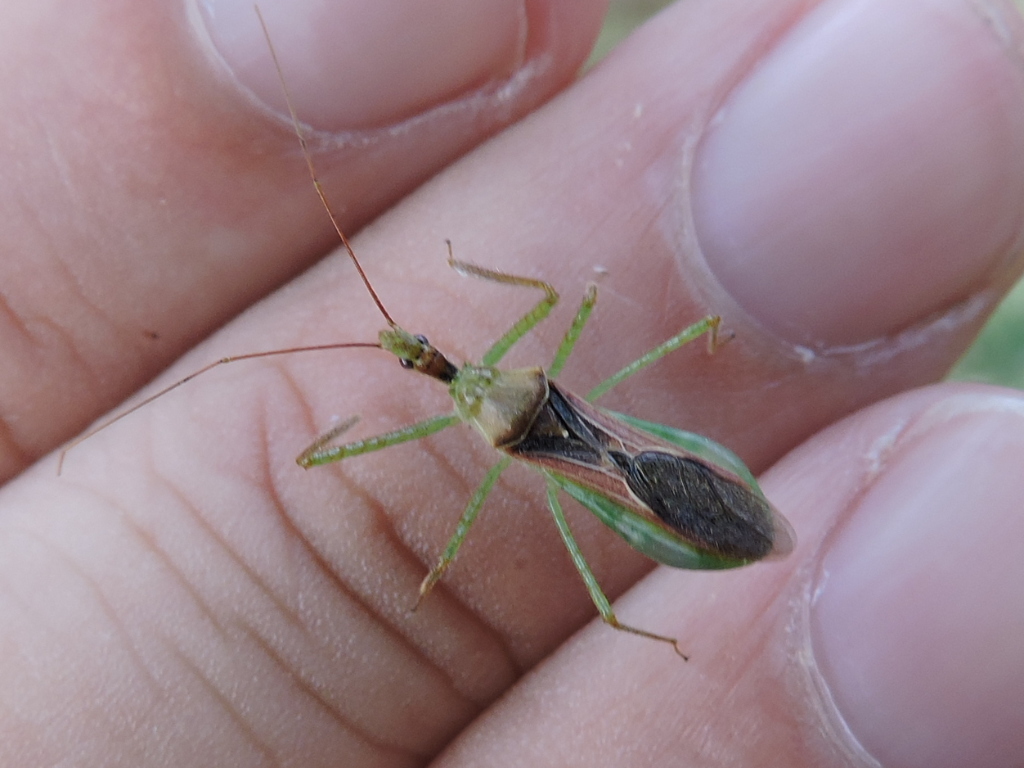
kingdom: Animalia
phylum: Arthropoda
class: Insecta
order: Hemiptera
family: Reduviidae
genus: Zelus
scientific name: Zelus renardii
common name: Assassin bug
